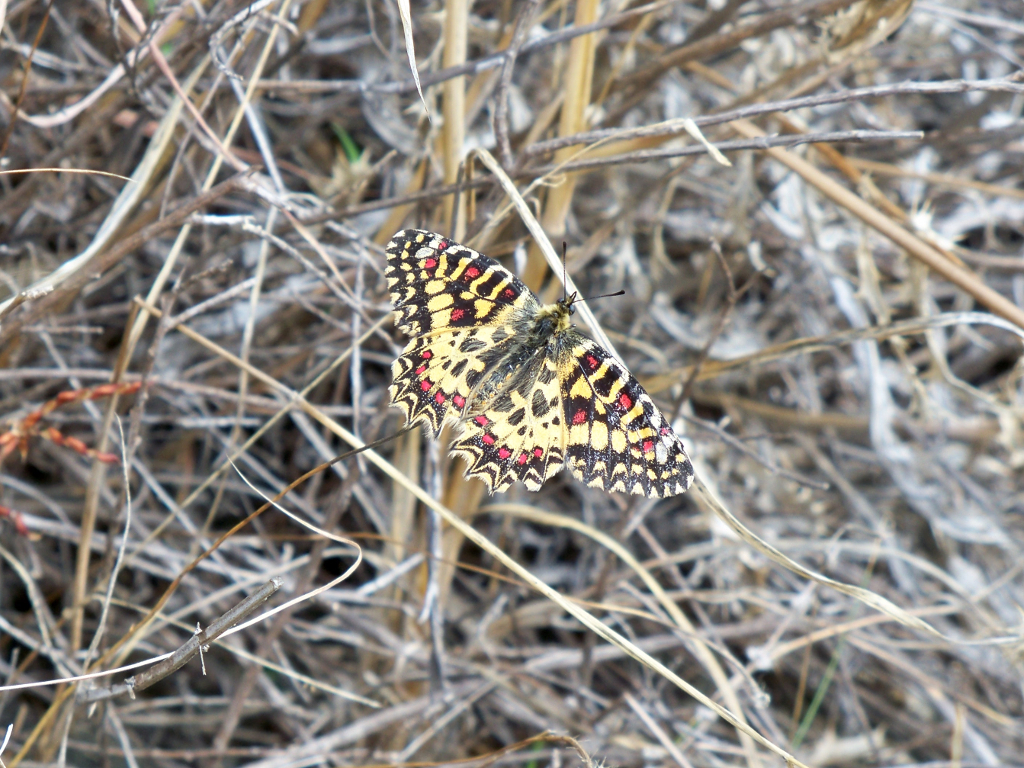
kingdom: Animalia
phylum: Arthropoda
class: Insecta
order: Lepidoptera
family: Papilionidae
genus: Zerynthia
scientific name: Zerynthia rumina
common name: Spanish festoon
